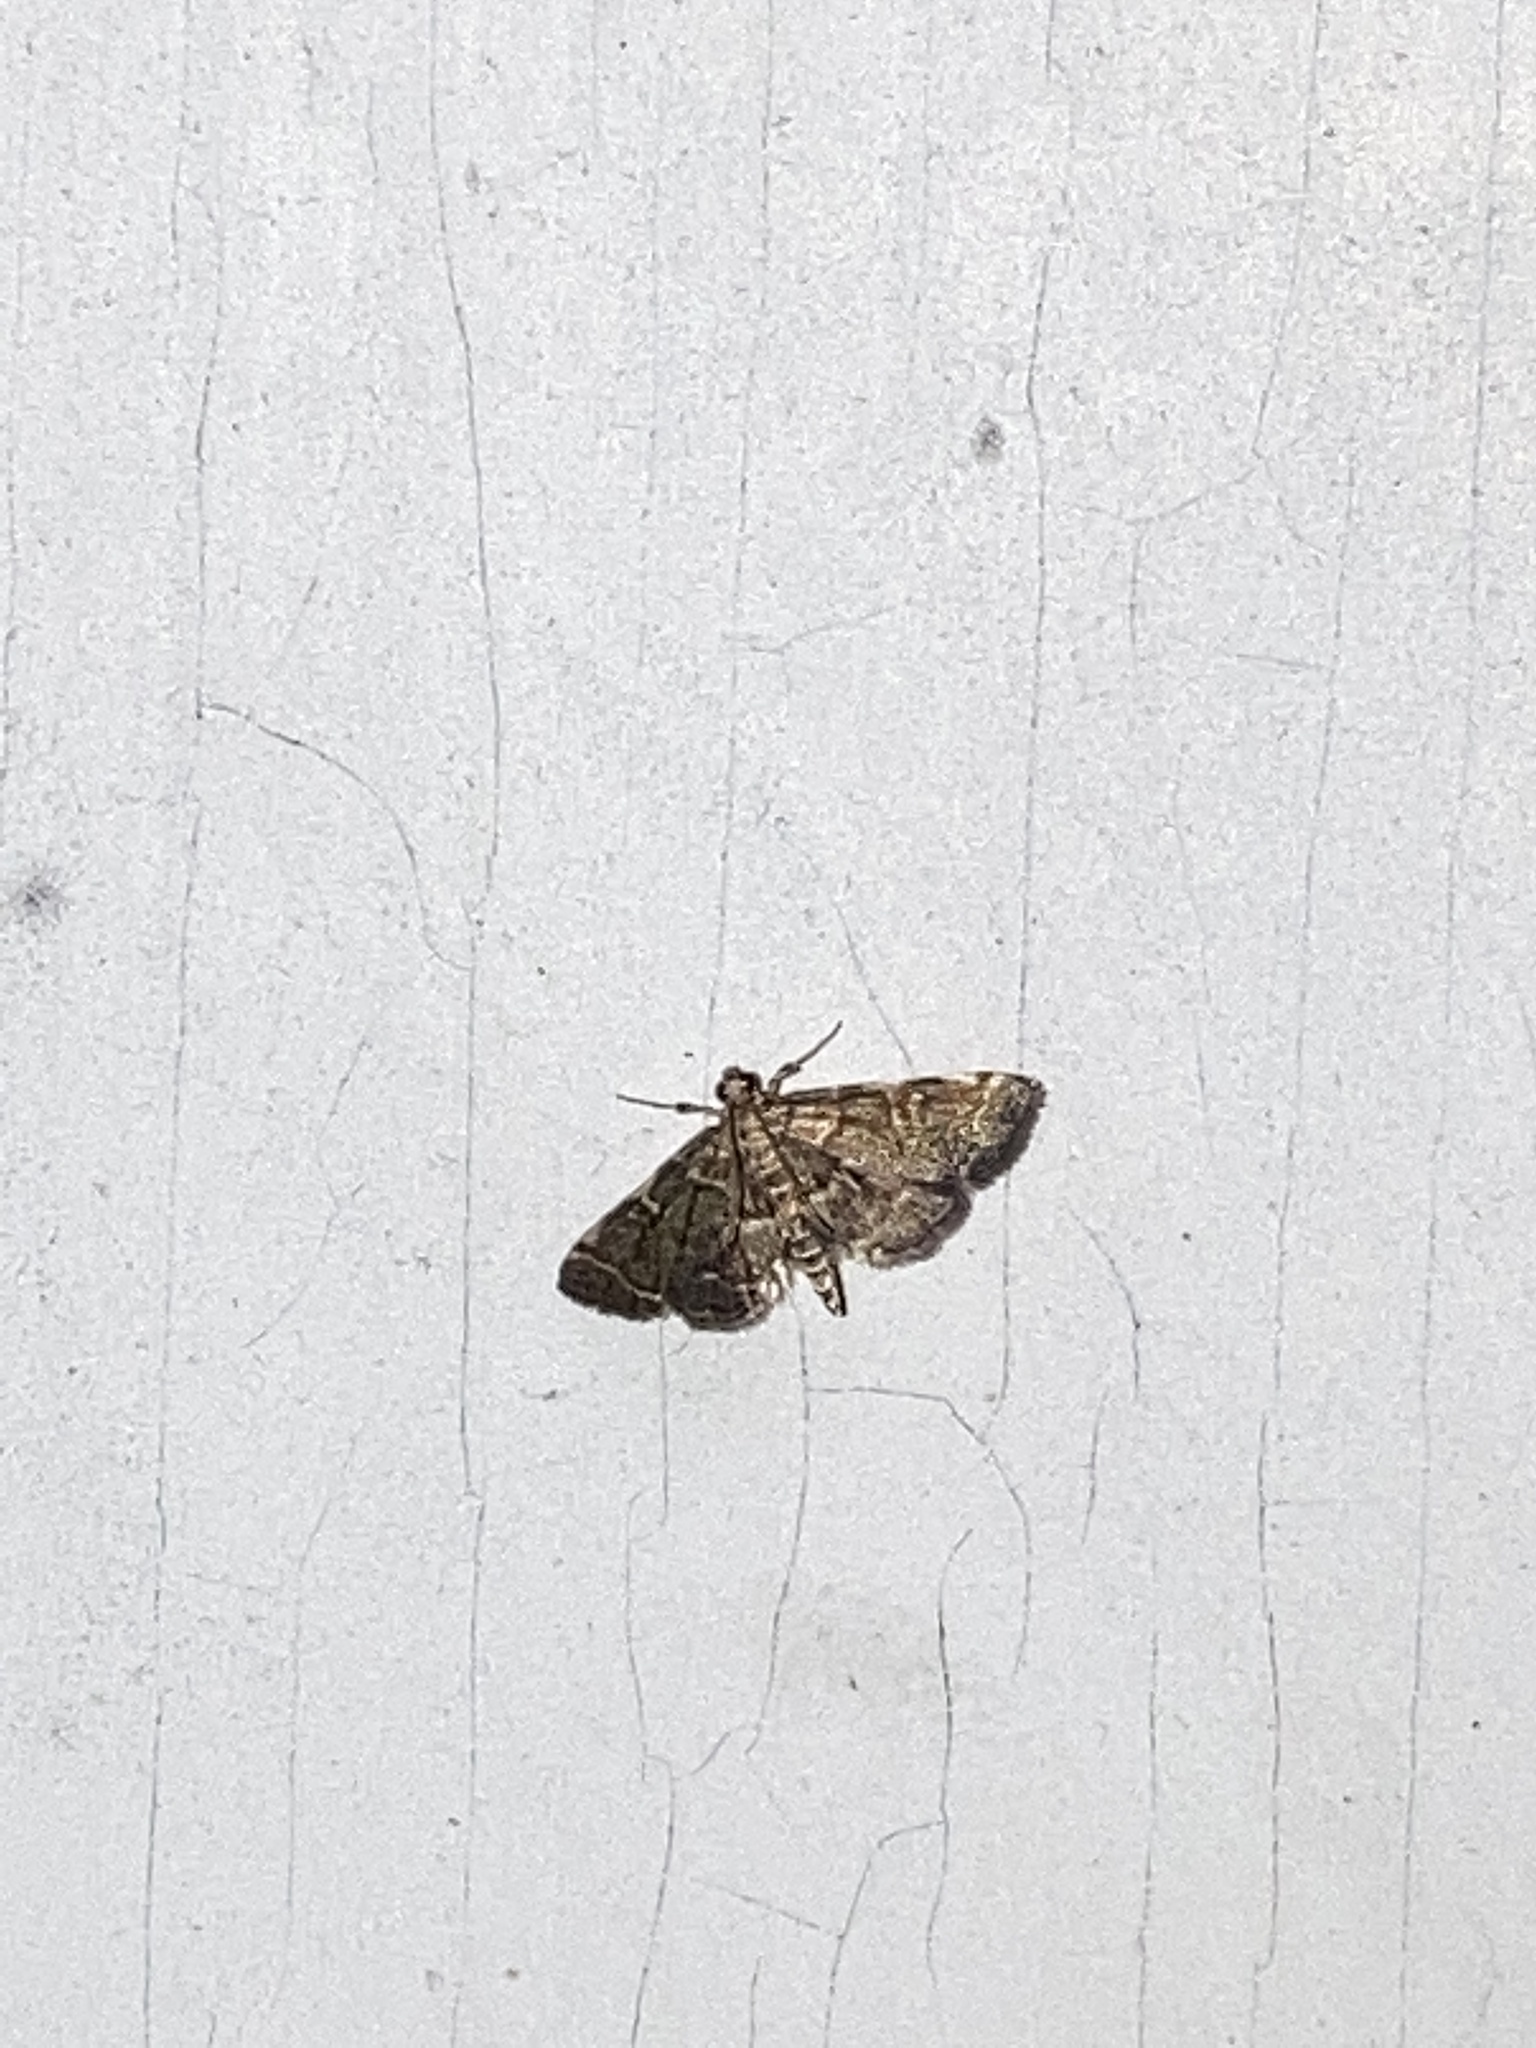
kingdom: Animalia
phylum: Arthropoda
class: Insecta
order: Lepidoptera
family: Crambidae
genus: Anageshna
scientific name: Anageshna primordialis
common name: Yellow-spotted webworm moth
